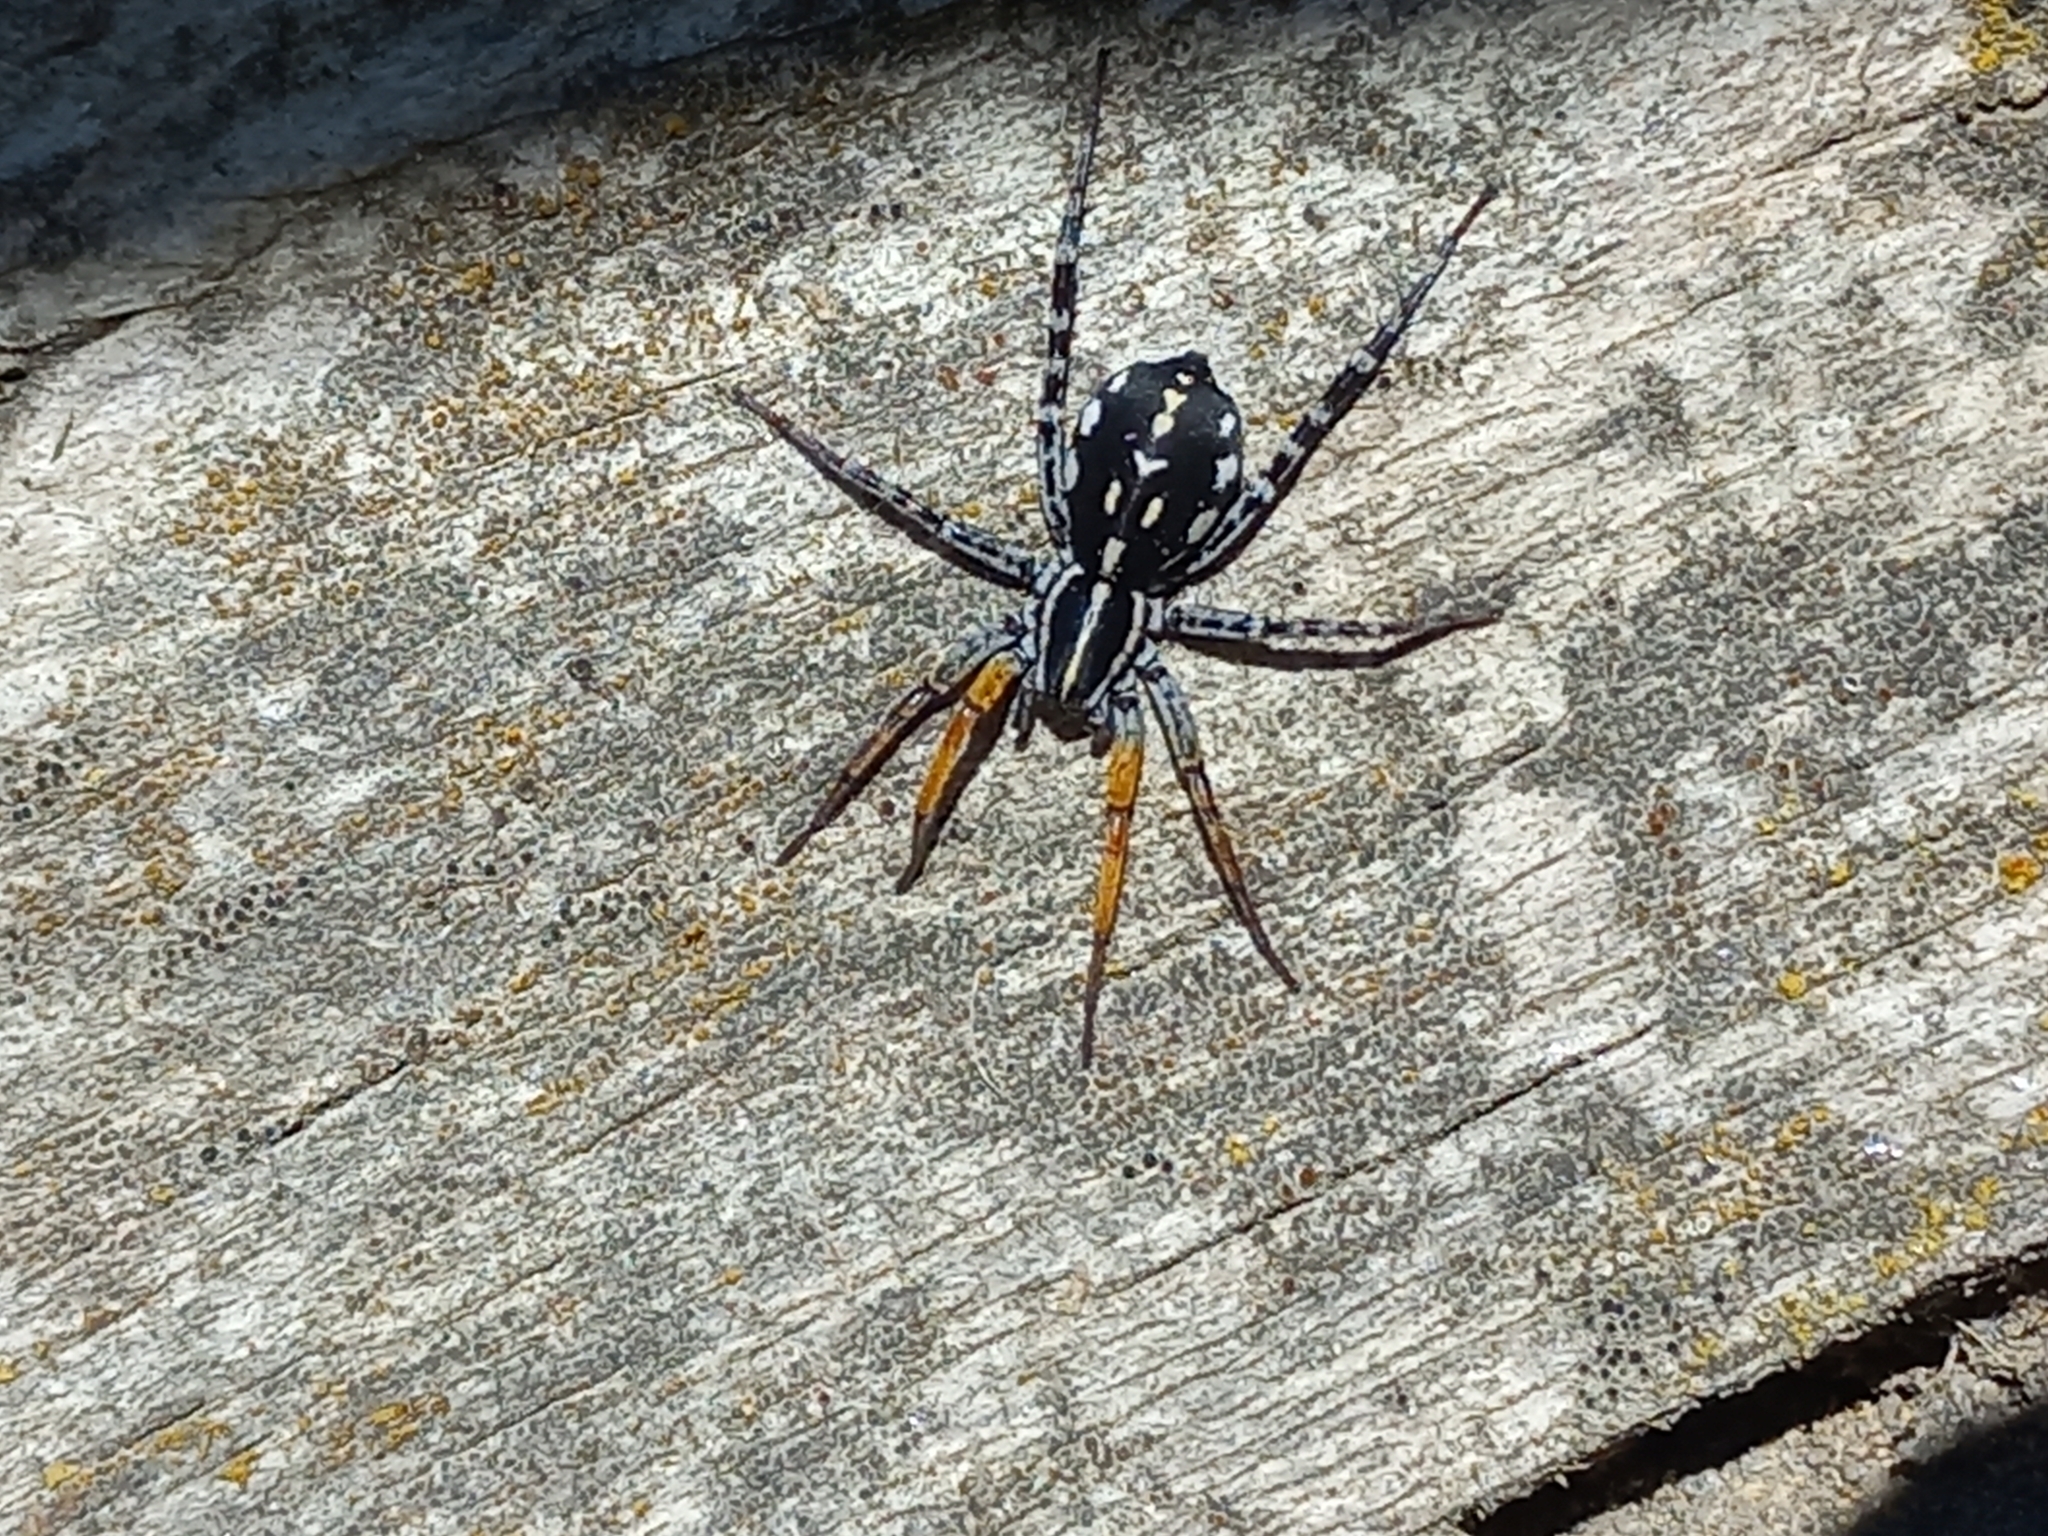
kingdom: Animalia
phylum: Arthropoda
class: Arachnida
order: Araneae
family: Corinnidae
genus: Nyssus
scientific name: Nyssus coloripes
